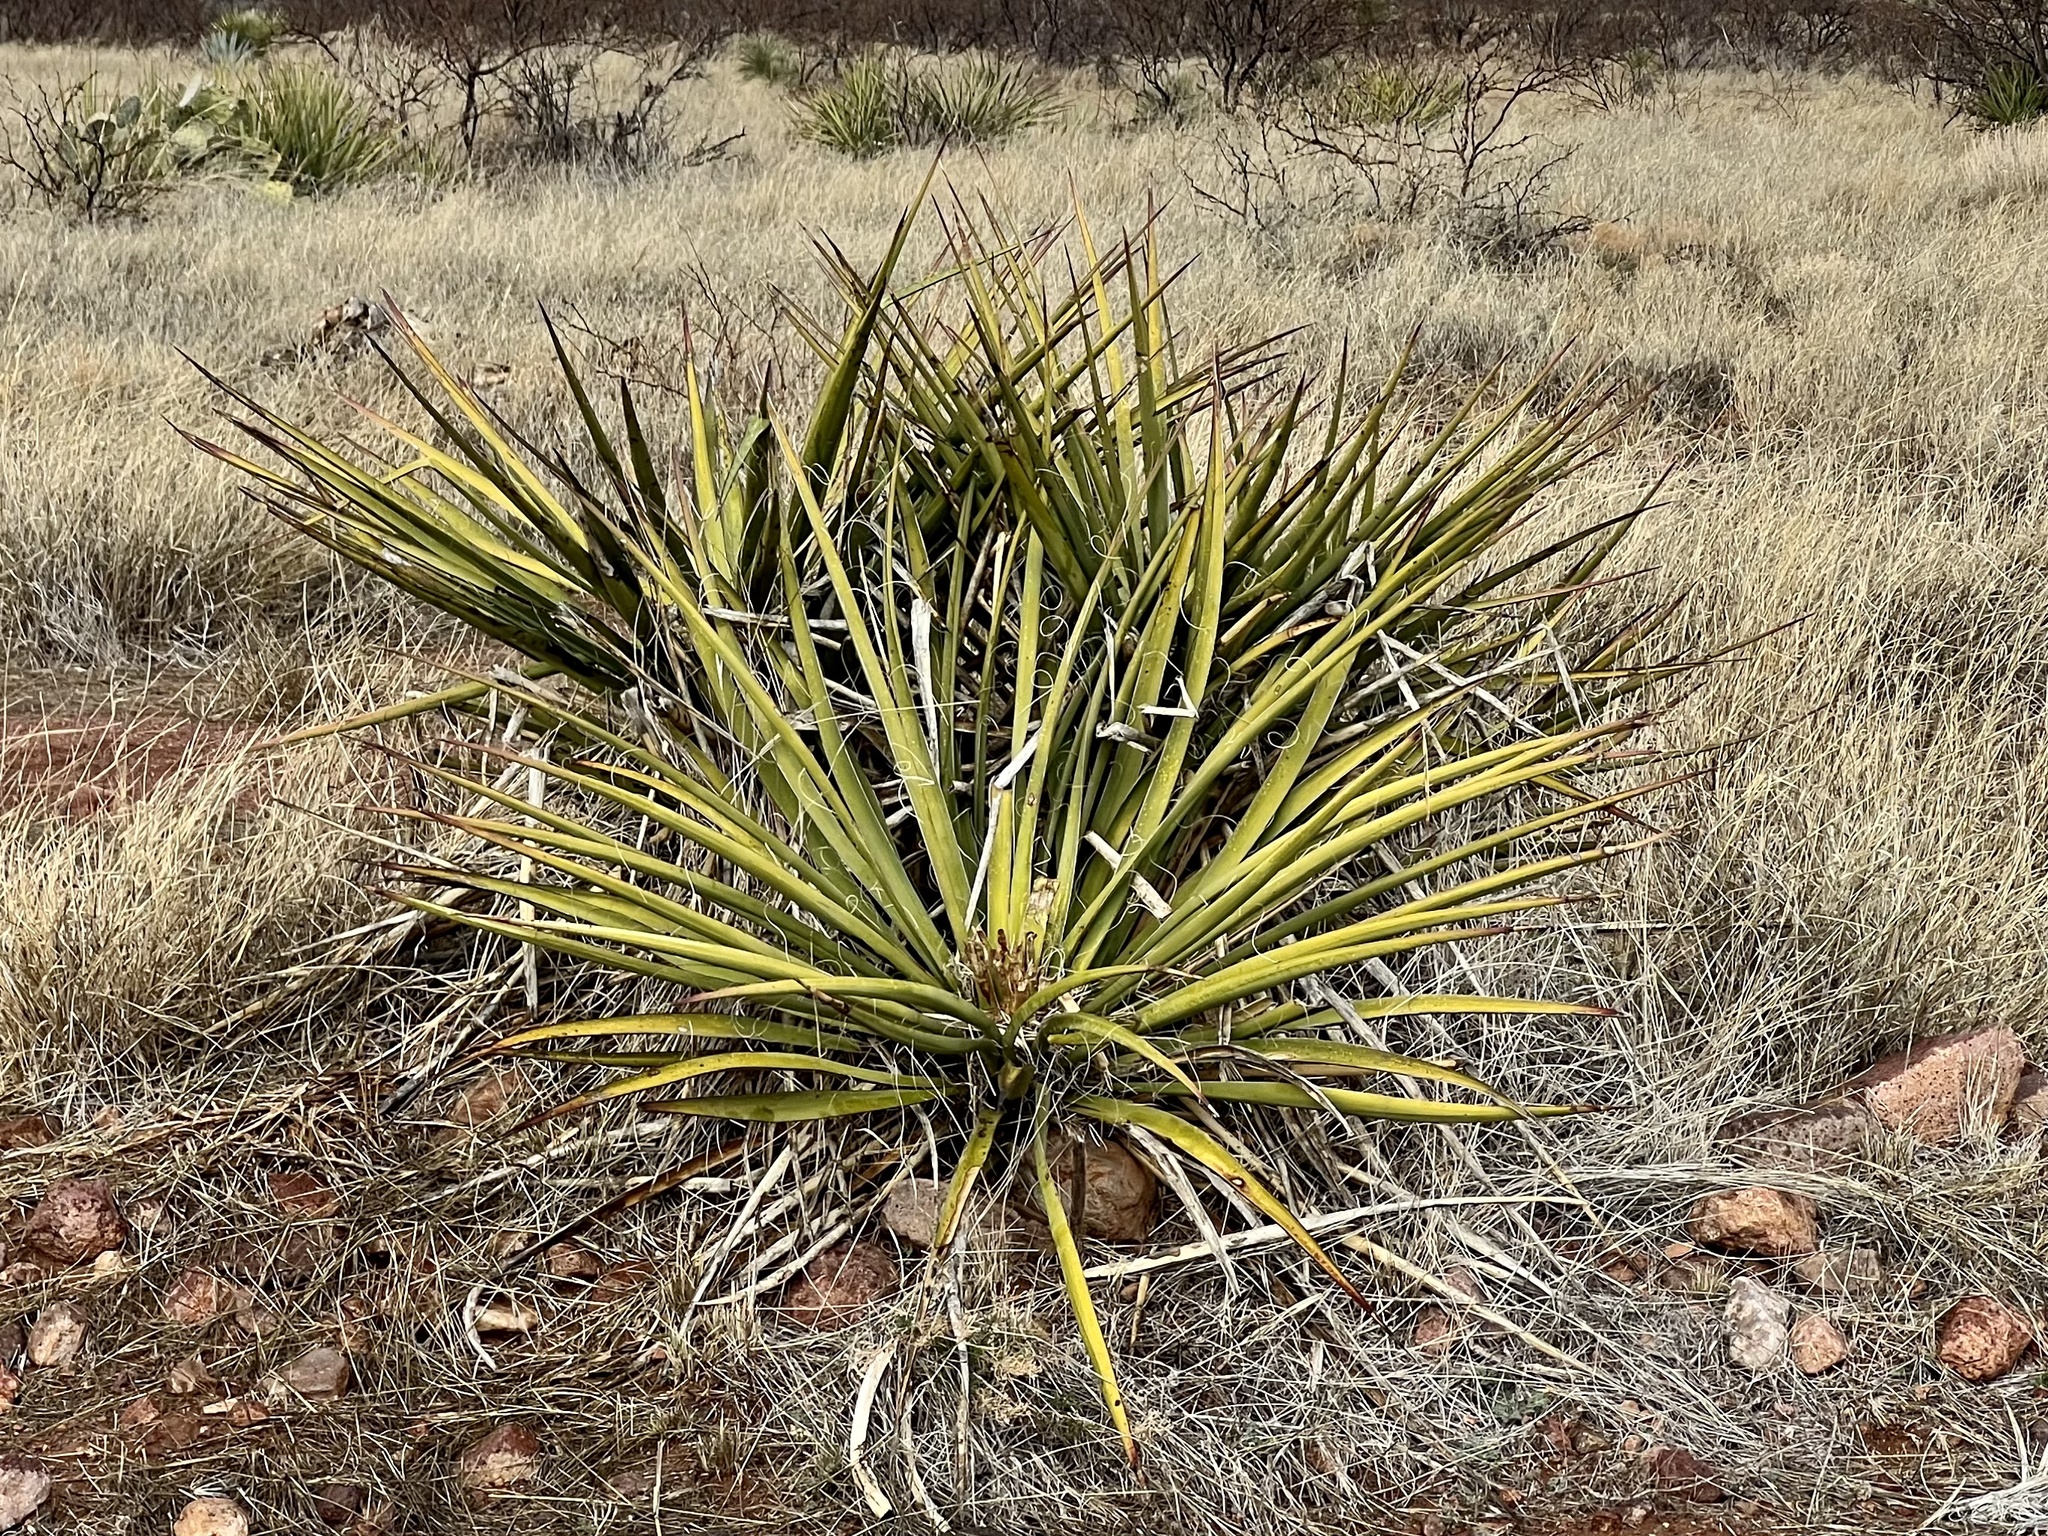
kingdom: Plantae
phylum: Tracheophyta
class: Liliopsida
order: Asparagales
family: Asparagaceae
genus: Yucca
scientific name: Yucca baccata
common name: Banana yucca
